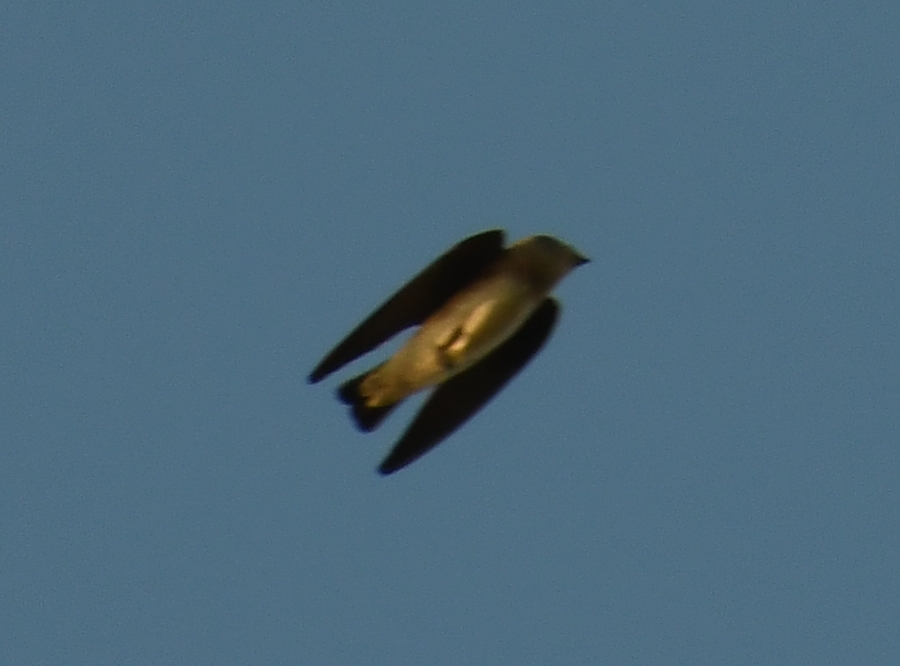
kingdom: Animalia
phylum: Chordata
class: Aves
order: Passeriformes
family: Hirundinidae
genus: Stelgidopteryx
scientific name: Stelgidopteryx serripennis
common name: Northern rough-winged swallow
